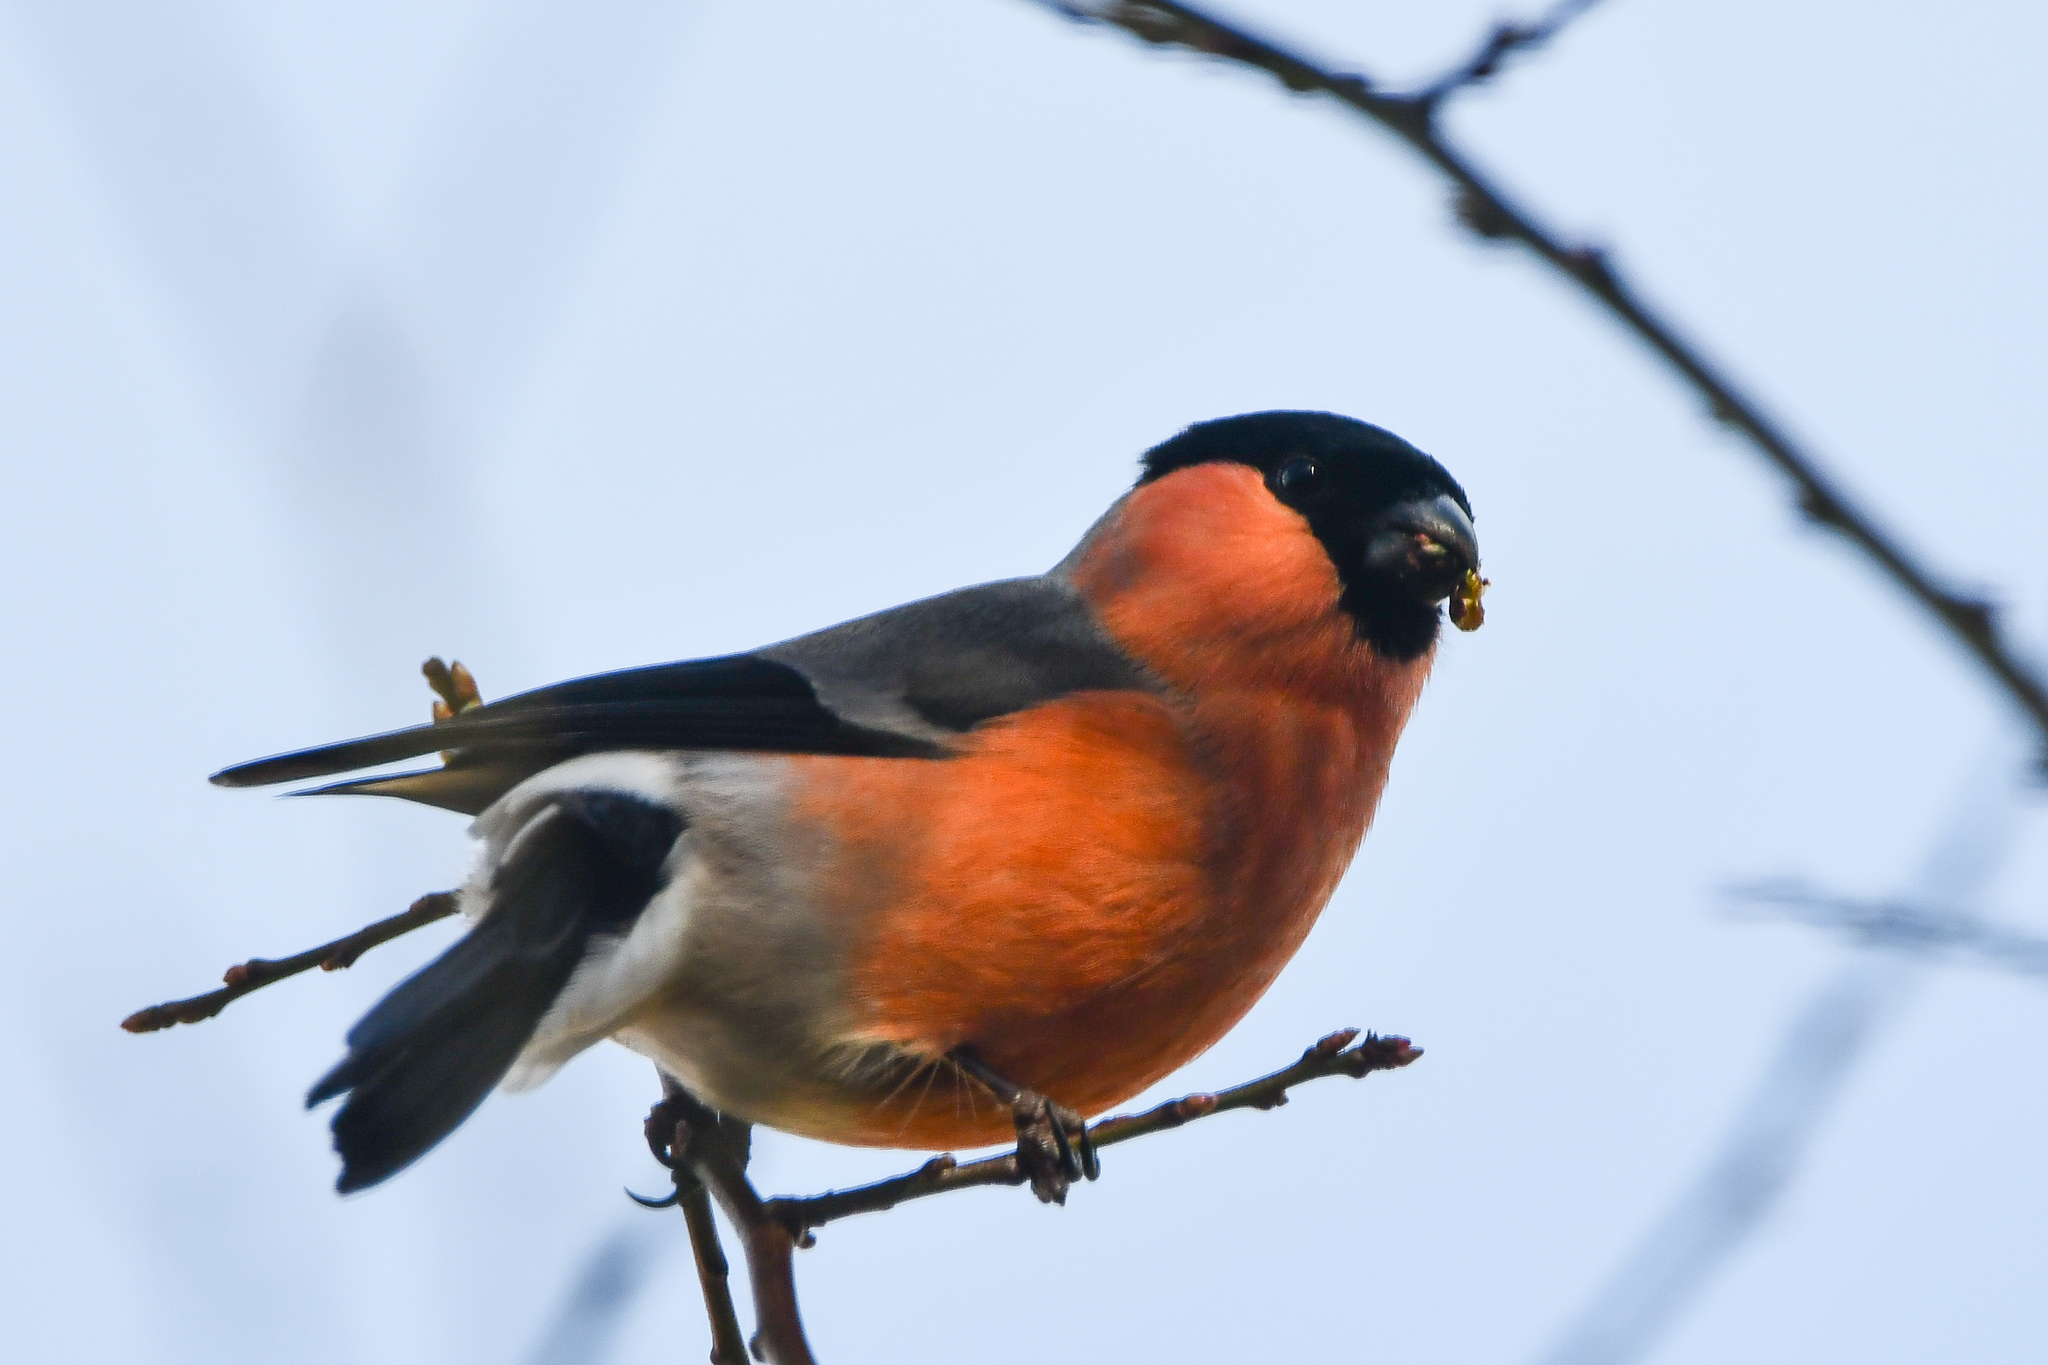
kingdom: Animalia
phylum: Chordata
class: Aves
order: Passeriformes
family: Fringillidae
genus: Pyrrhula
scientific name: Pyrrhula pyrrhula
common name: Eurasian bullfinch
